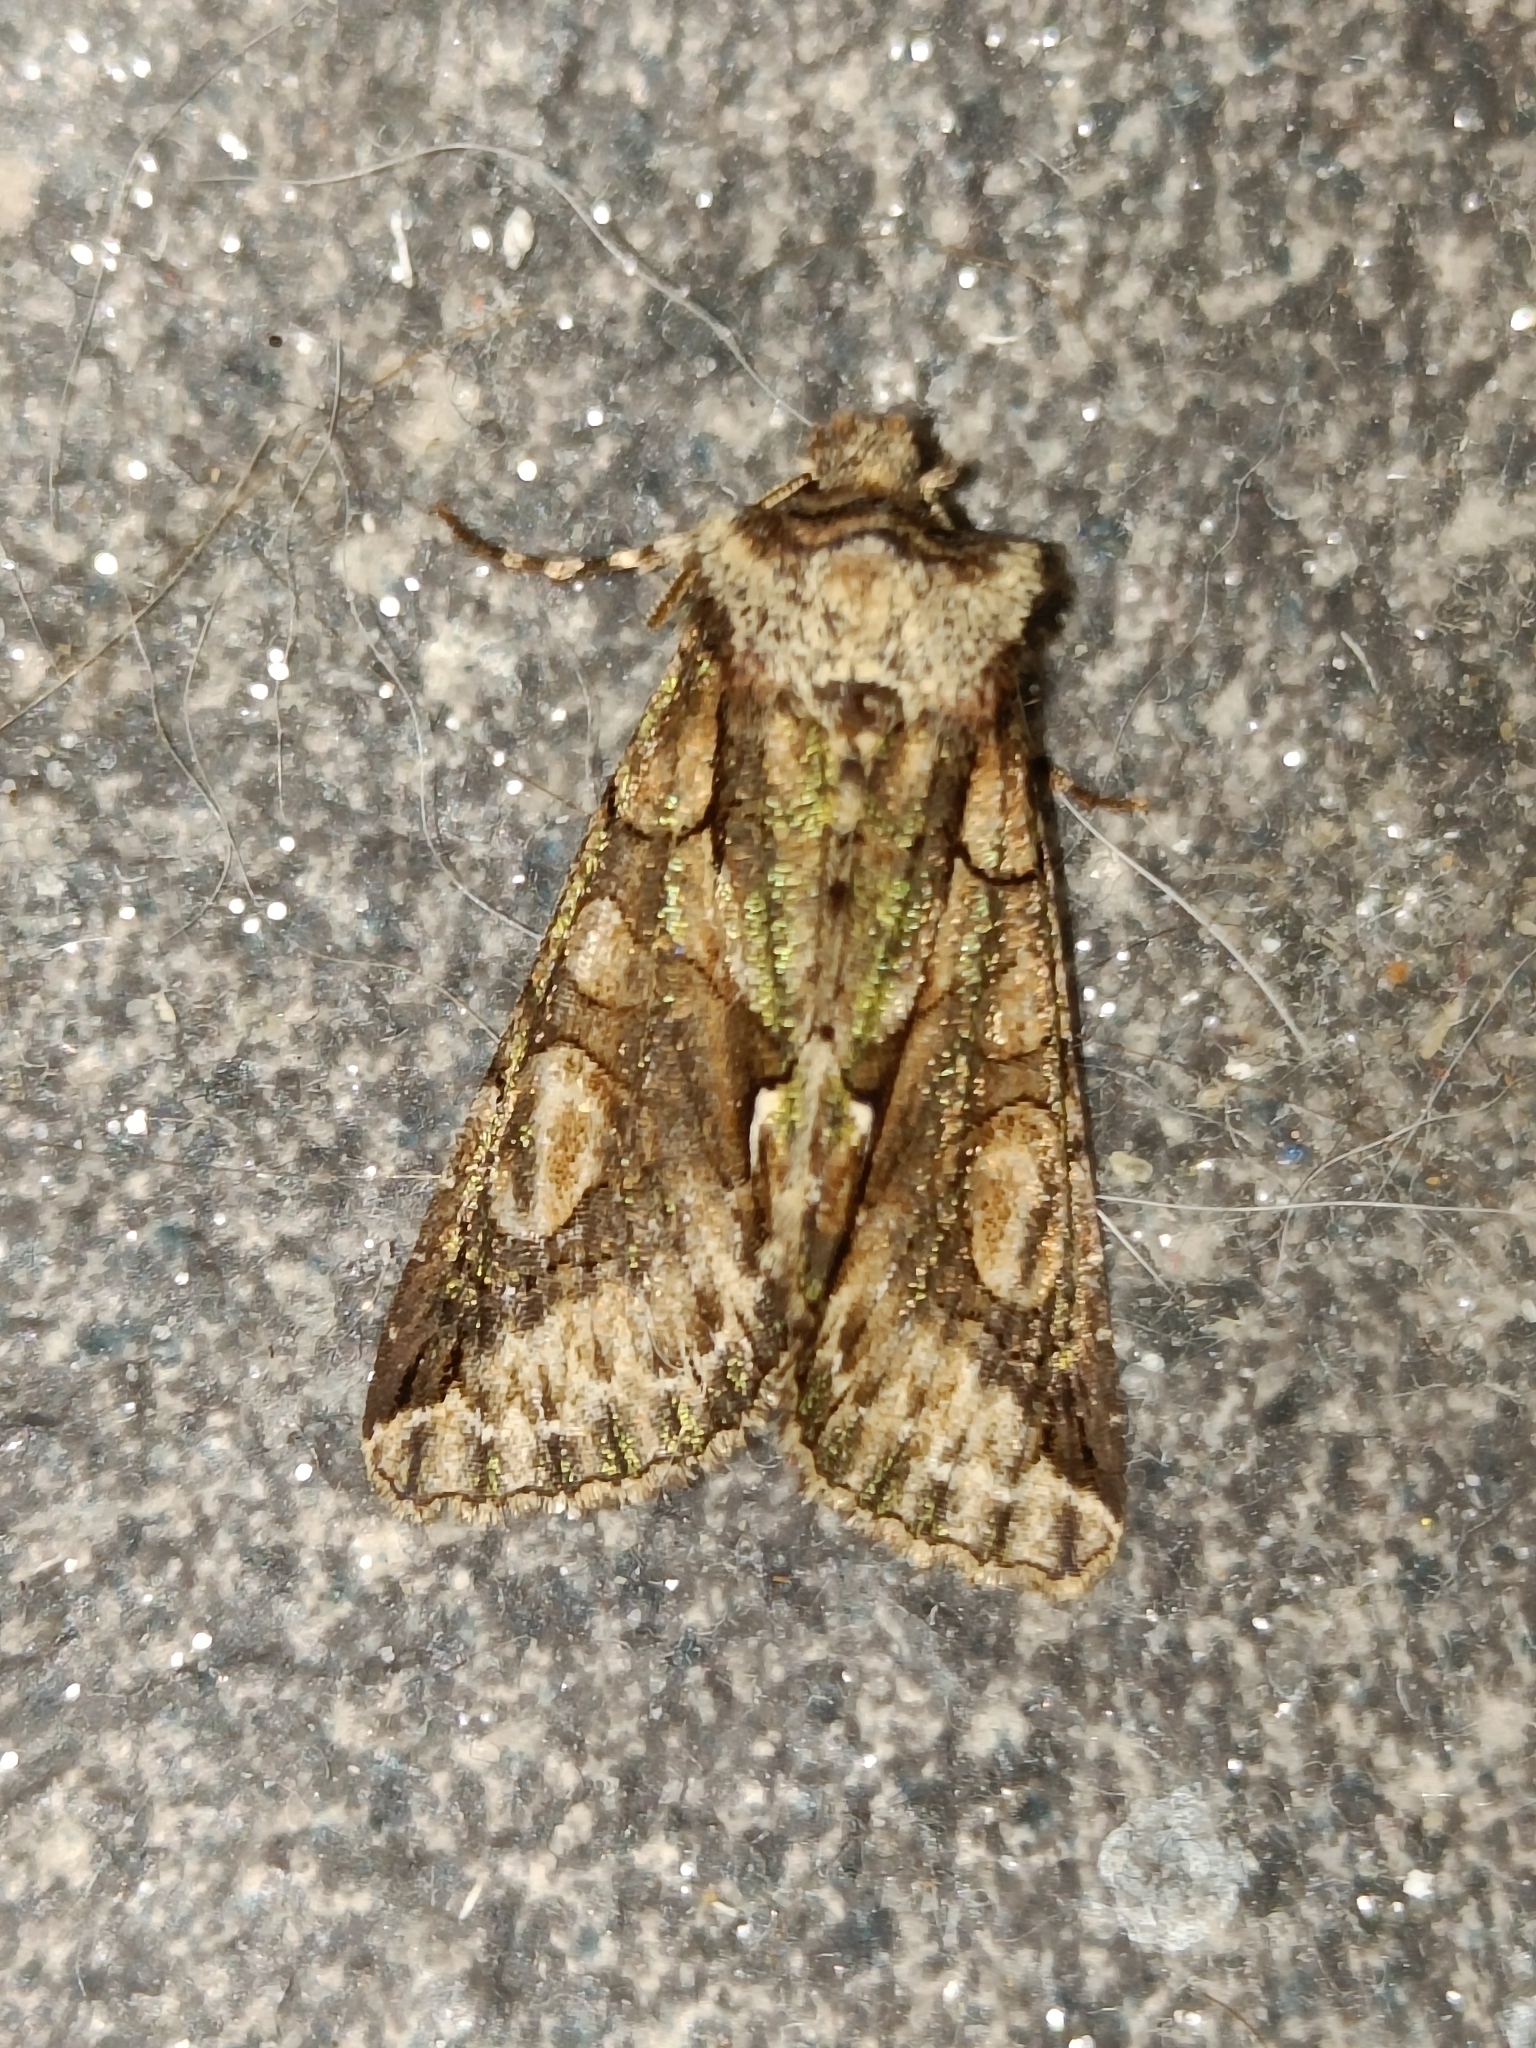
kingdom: Animalia
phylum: Arthropoda
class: Insecta
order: Lepidoptera
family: Noctuidae
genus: Allophyes
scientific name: Allophyes oxyacanthae
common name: Green-brindled crescent
